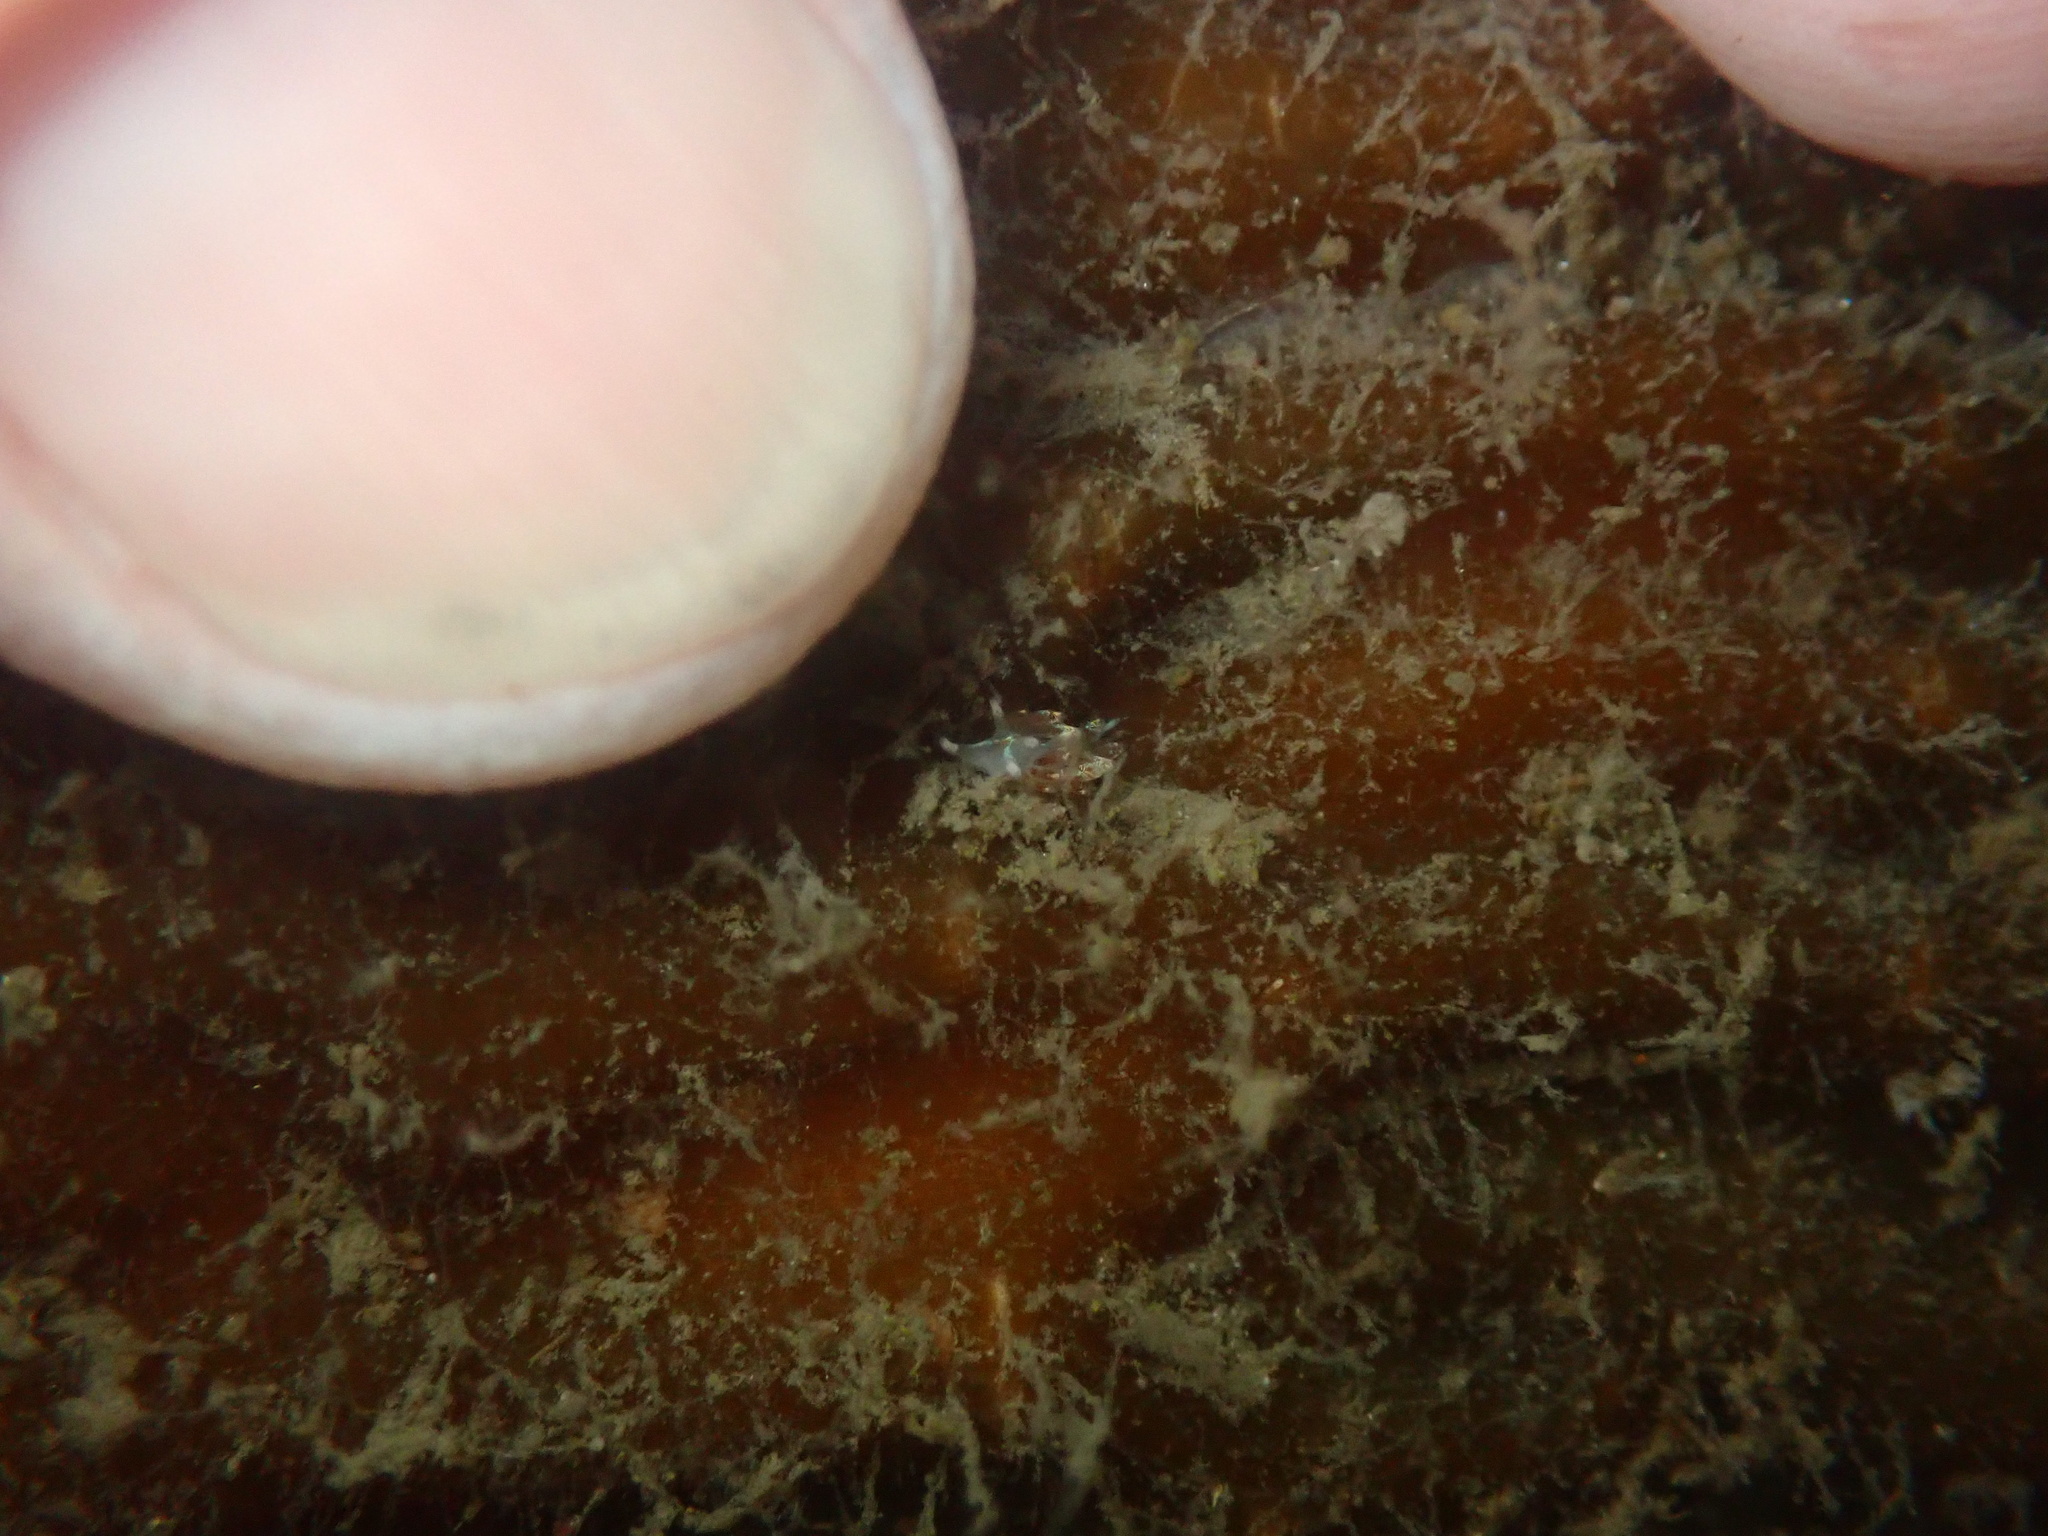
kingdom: Animalia
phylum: Mollusca
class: Gastropoda
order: Nudibranchia
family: Myrrhinidae
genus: Hermissenda
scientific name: Hermissenda opalescens
